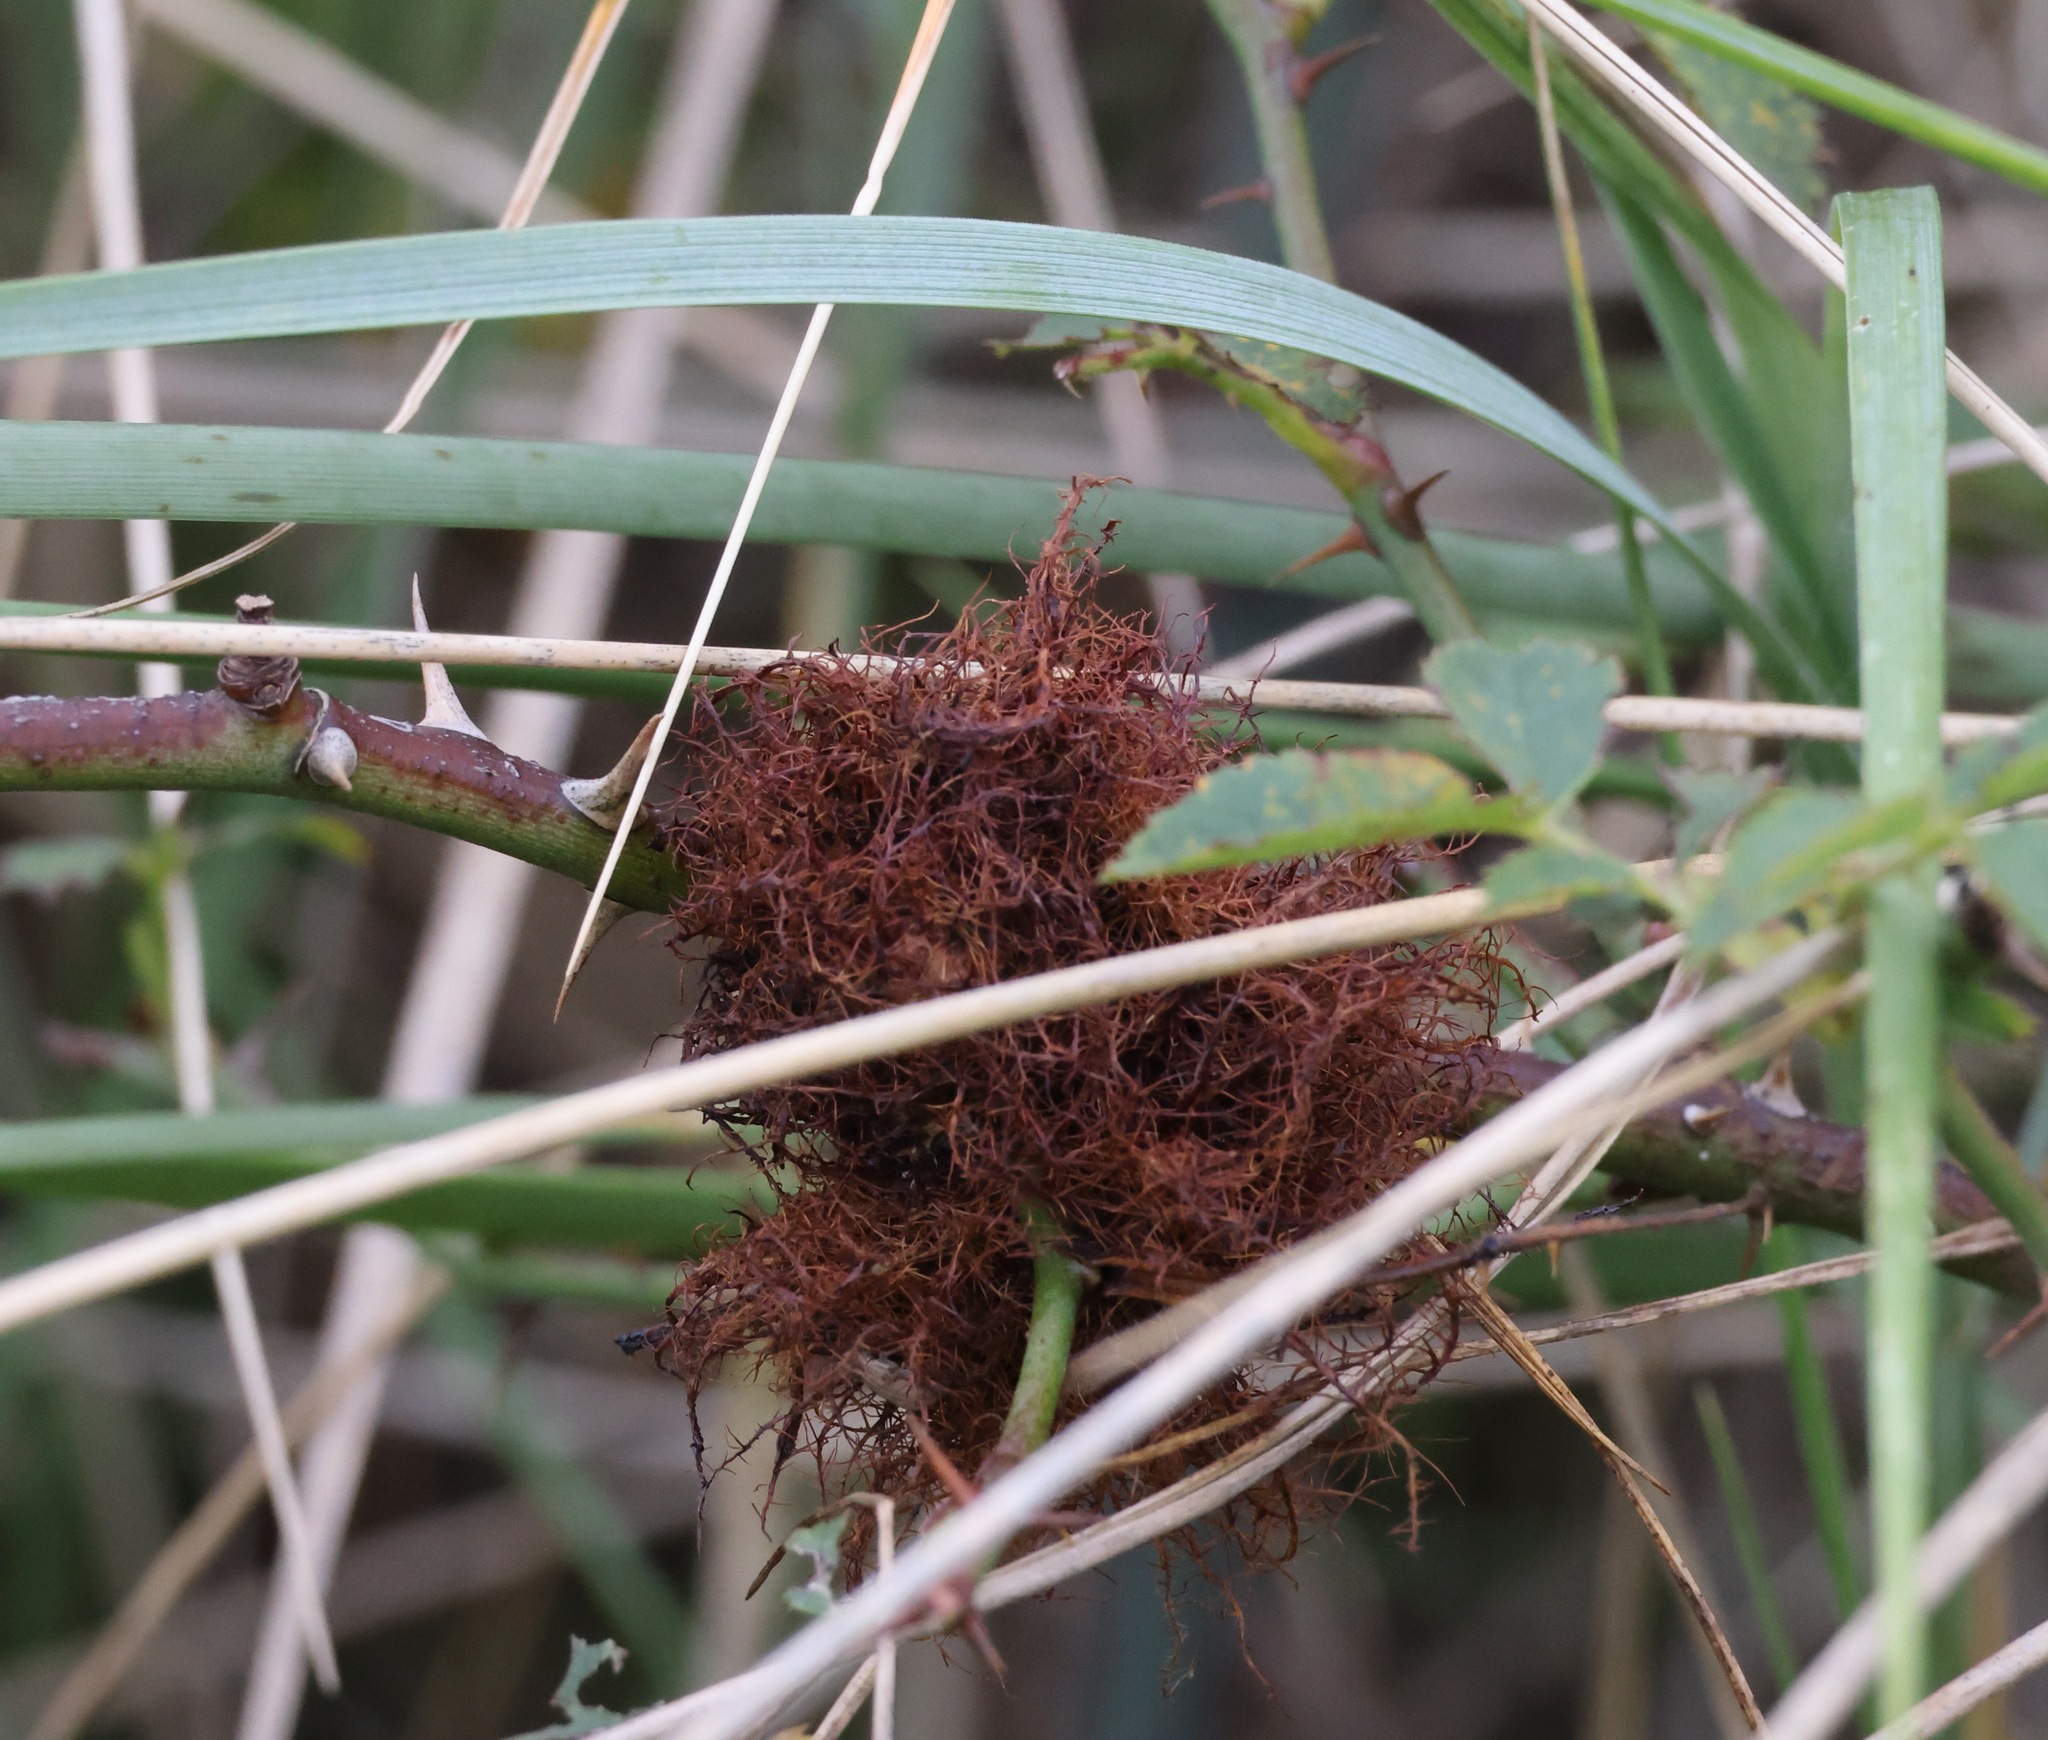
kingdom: Animalia
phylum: Arthropoda
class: Insecta
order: Hymenoptera
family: Cynipidae
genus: Diplolepis
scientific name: Diplolepis rosae
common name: Bedeguar gall
